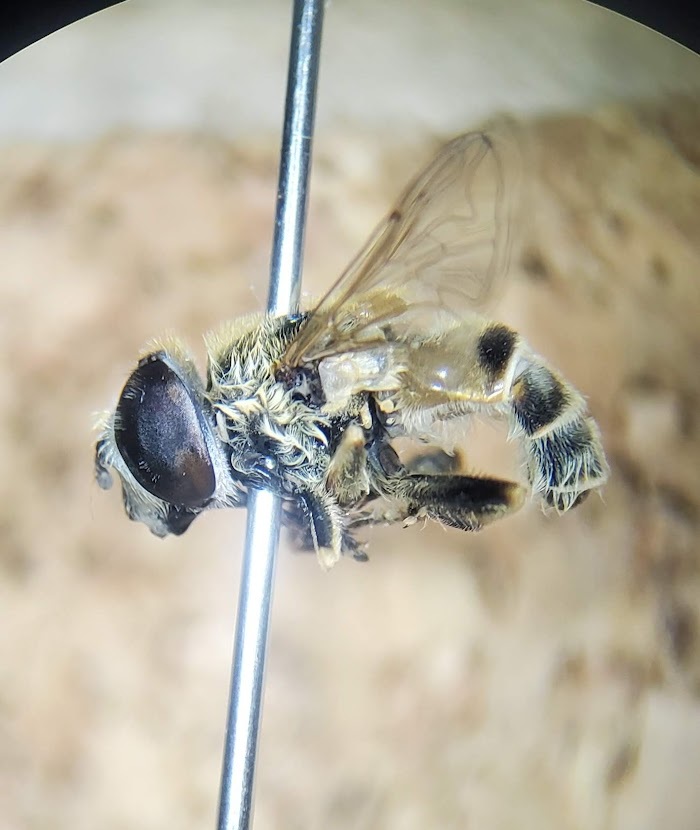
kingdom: Animalia
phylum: Arthropoda
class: Insecta
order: Diptera
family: Syrphidae
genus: Eristalis
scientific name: Eristalis stipator
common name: Yellow-shouldered drone fly
